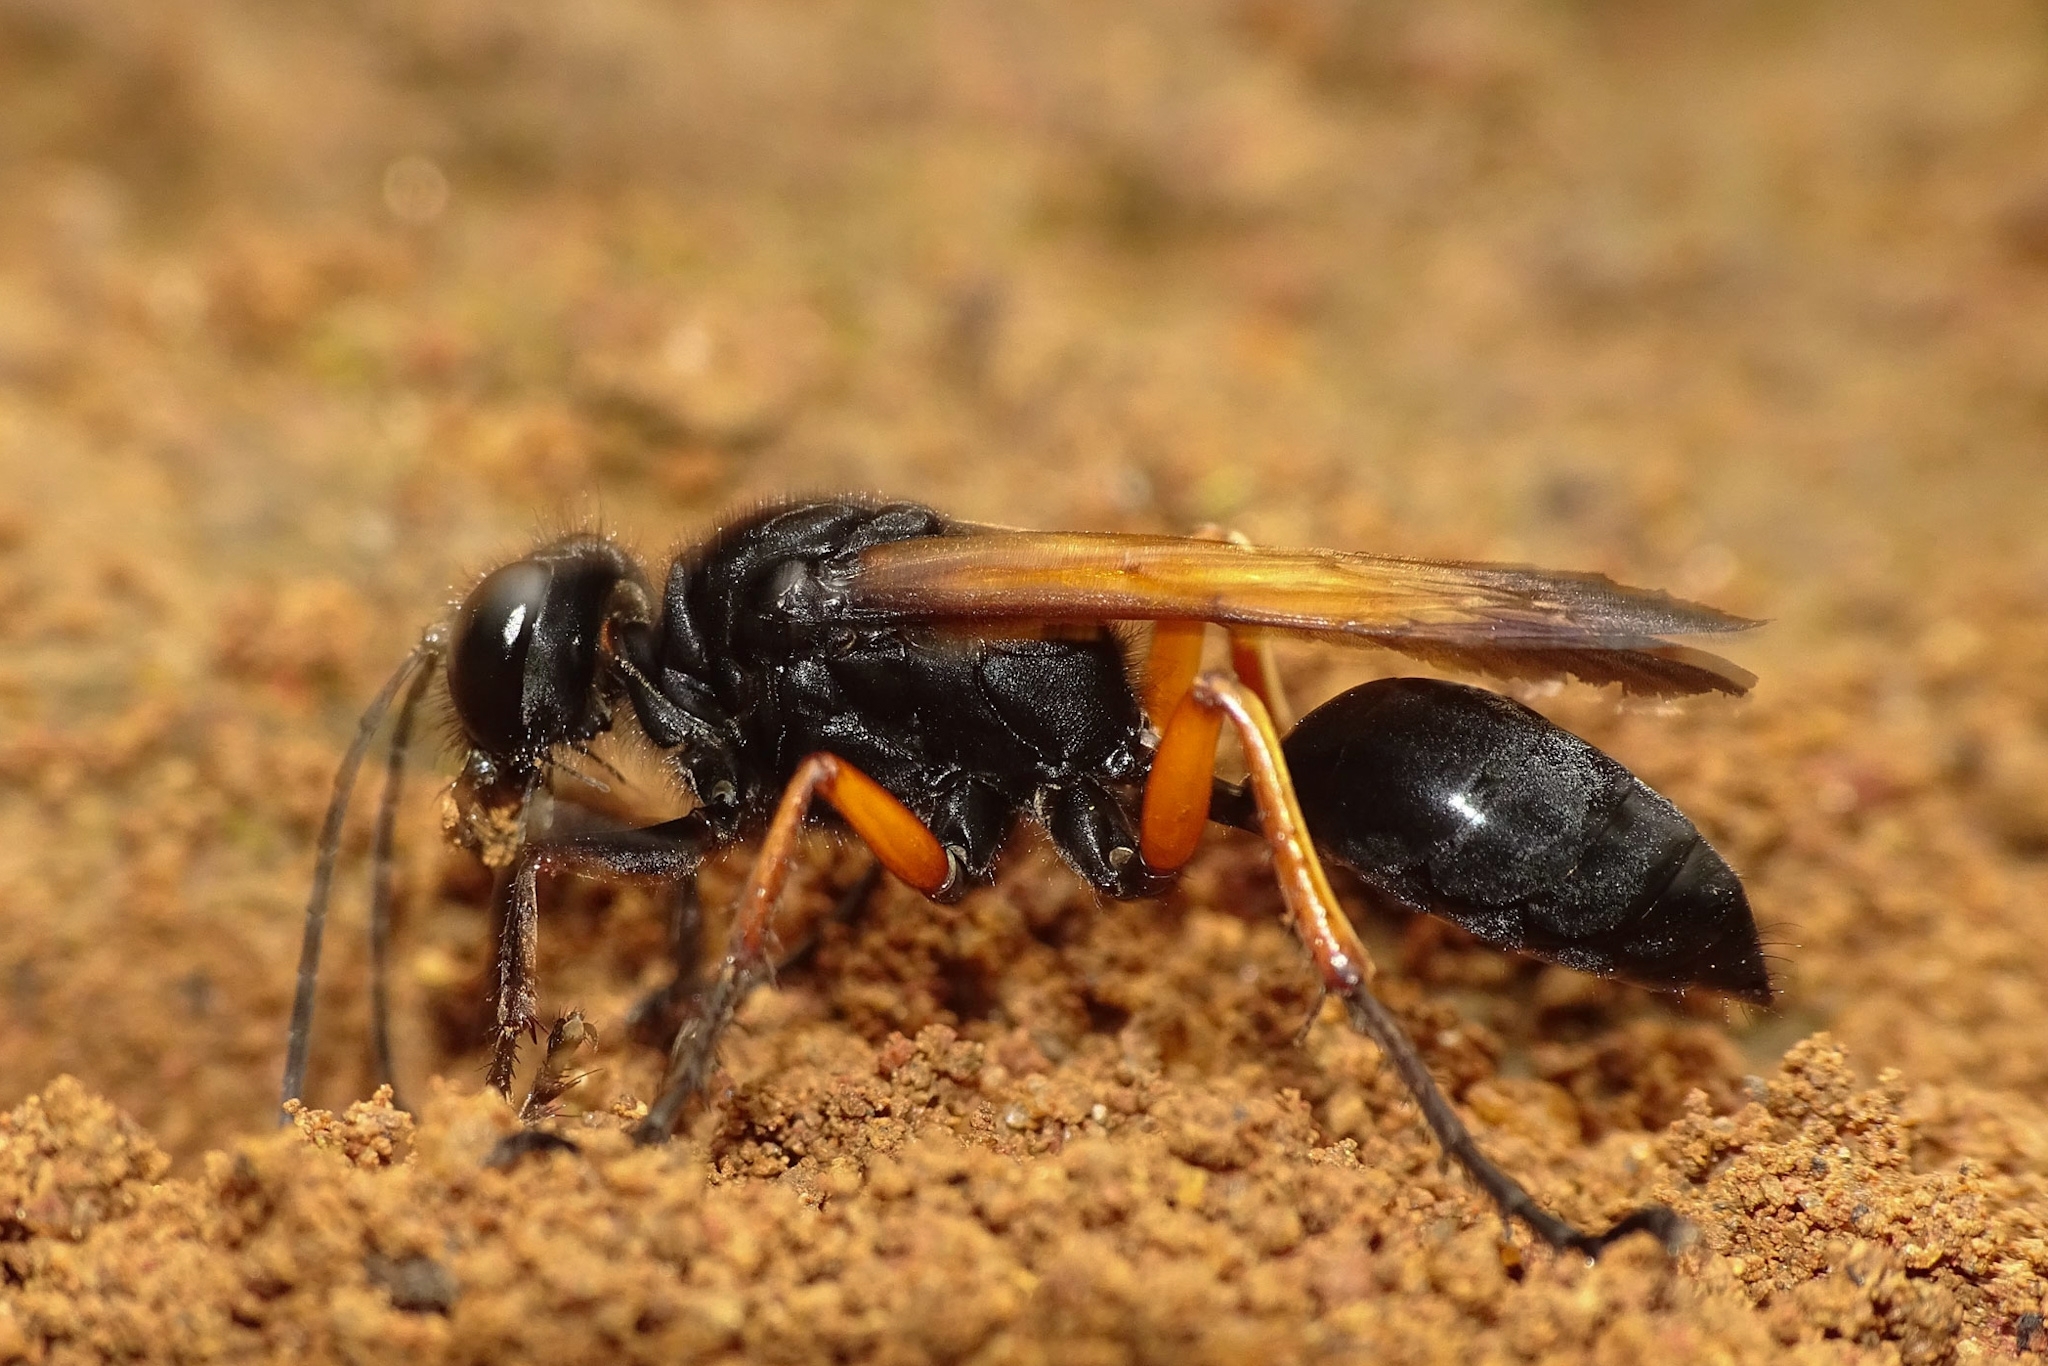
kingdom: Animalia
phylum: Arthropoda
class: Insecta
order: Hymenoptera
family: Sphecidae
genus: Sphex
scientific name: Sphex subtruncatus
